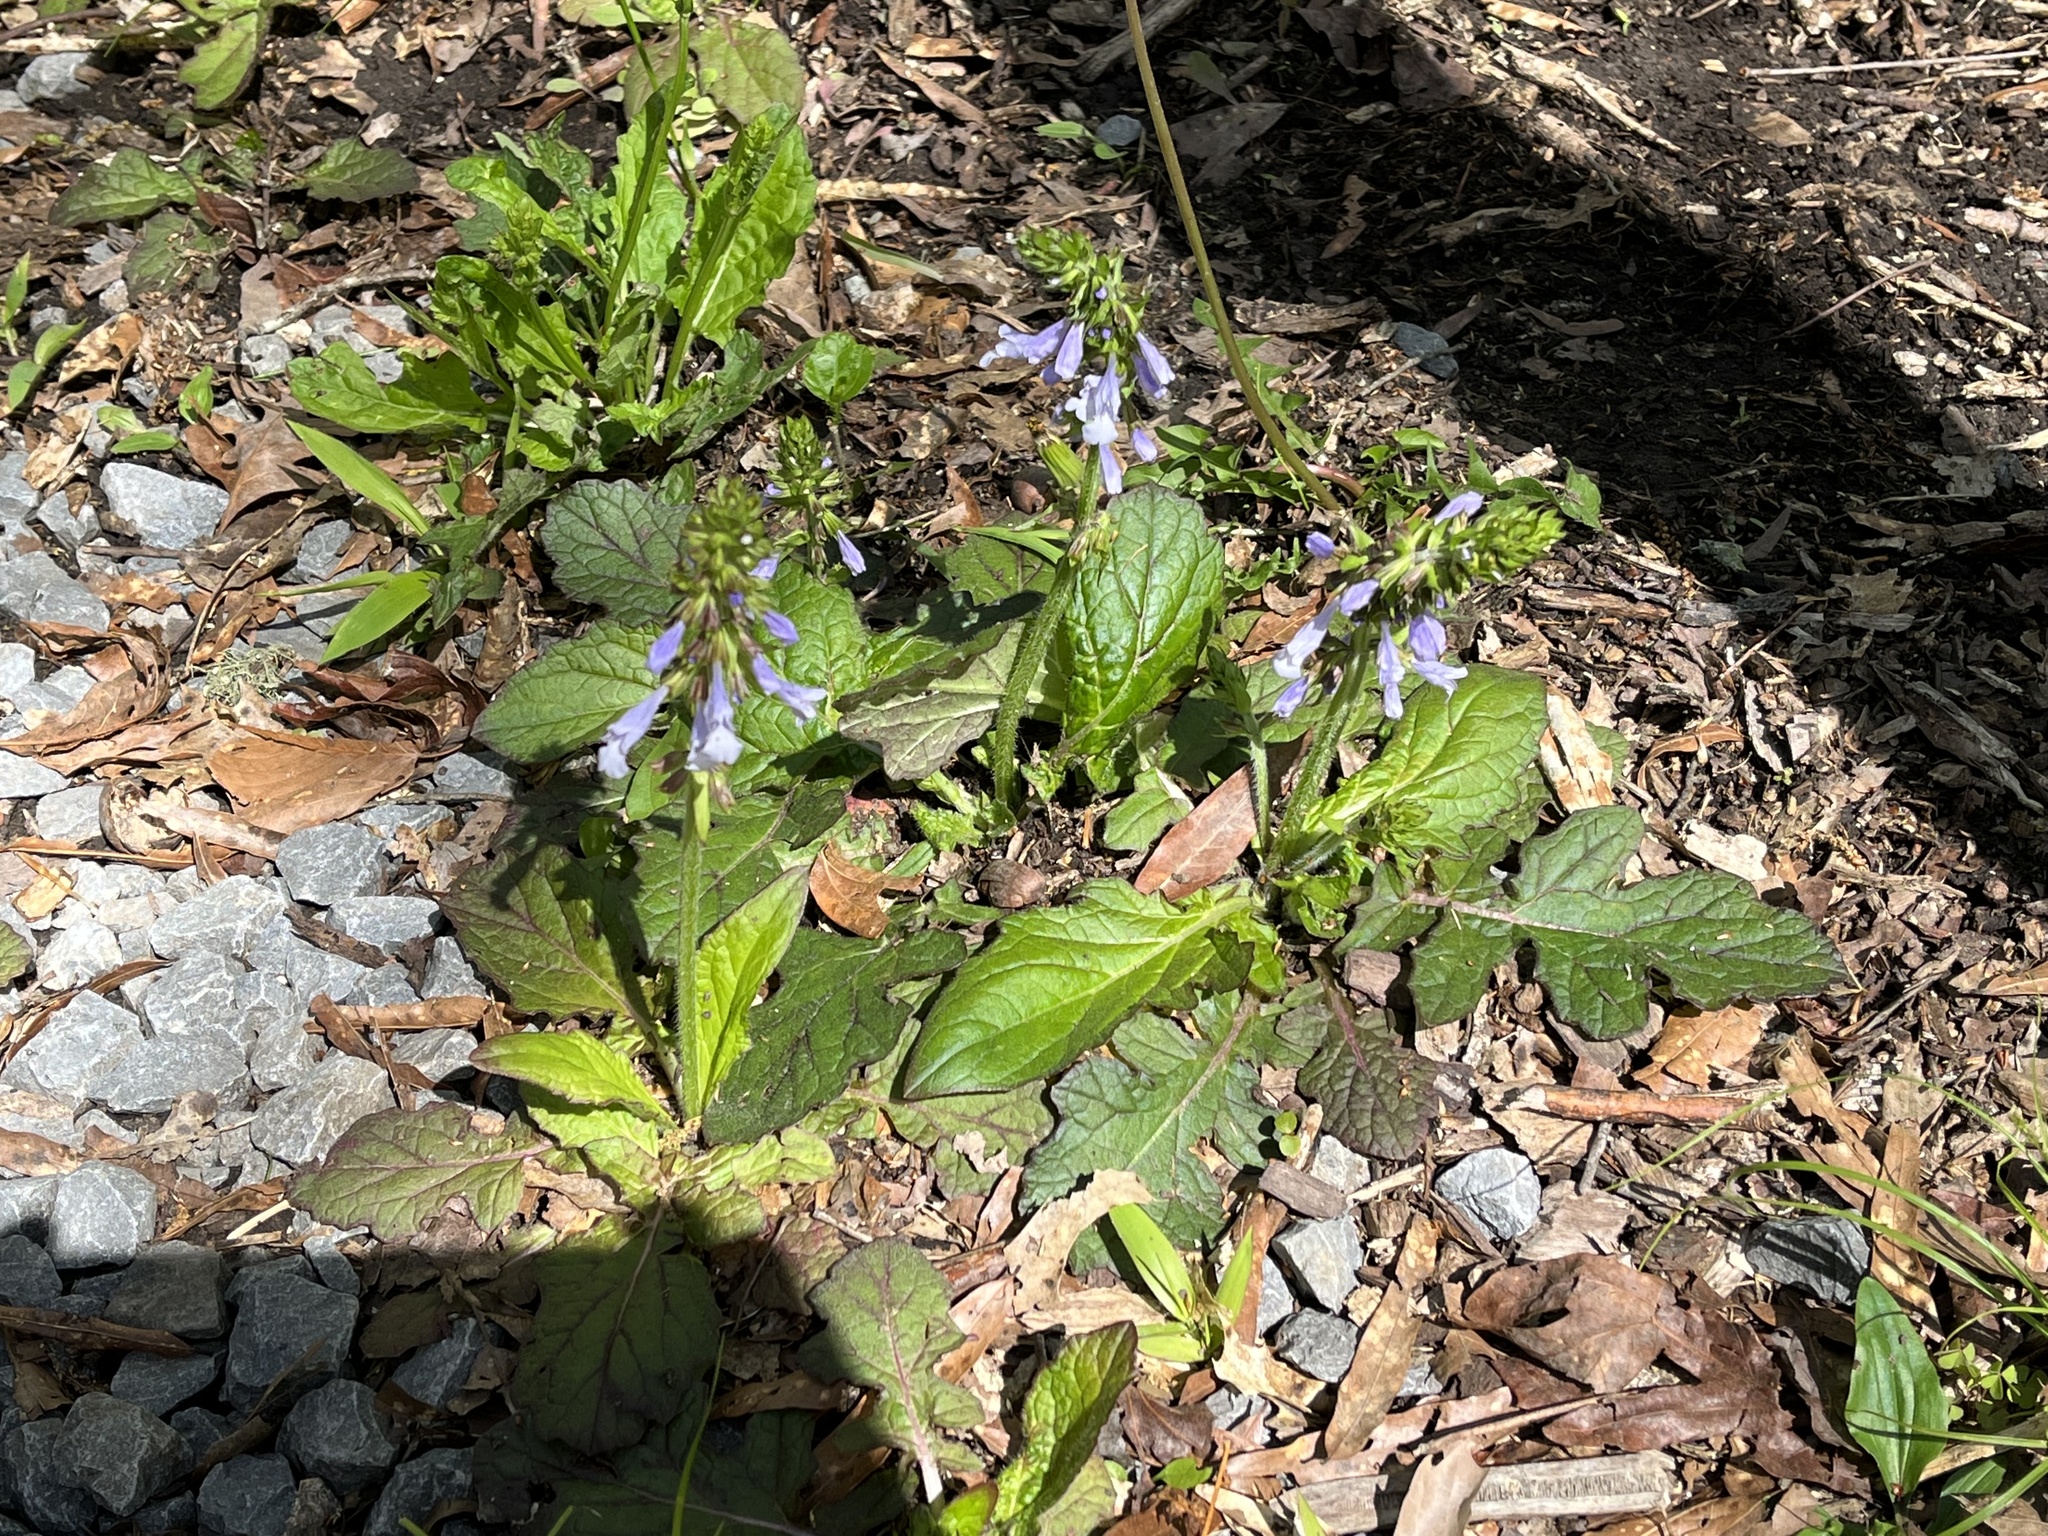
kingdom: Plantae
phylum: Tracheophyta
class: Magnoliopsida
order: Lamiales
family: Lamiaceae
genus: Salvia
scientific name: Salvia lyrata
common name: Cancerweed
